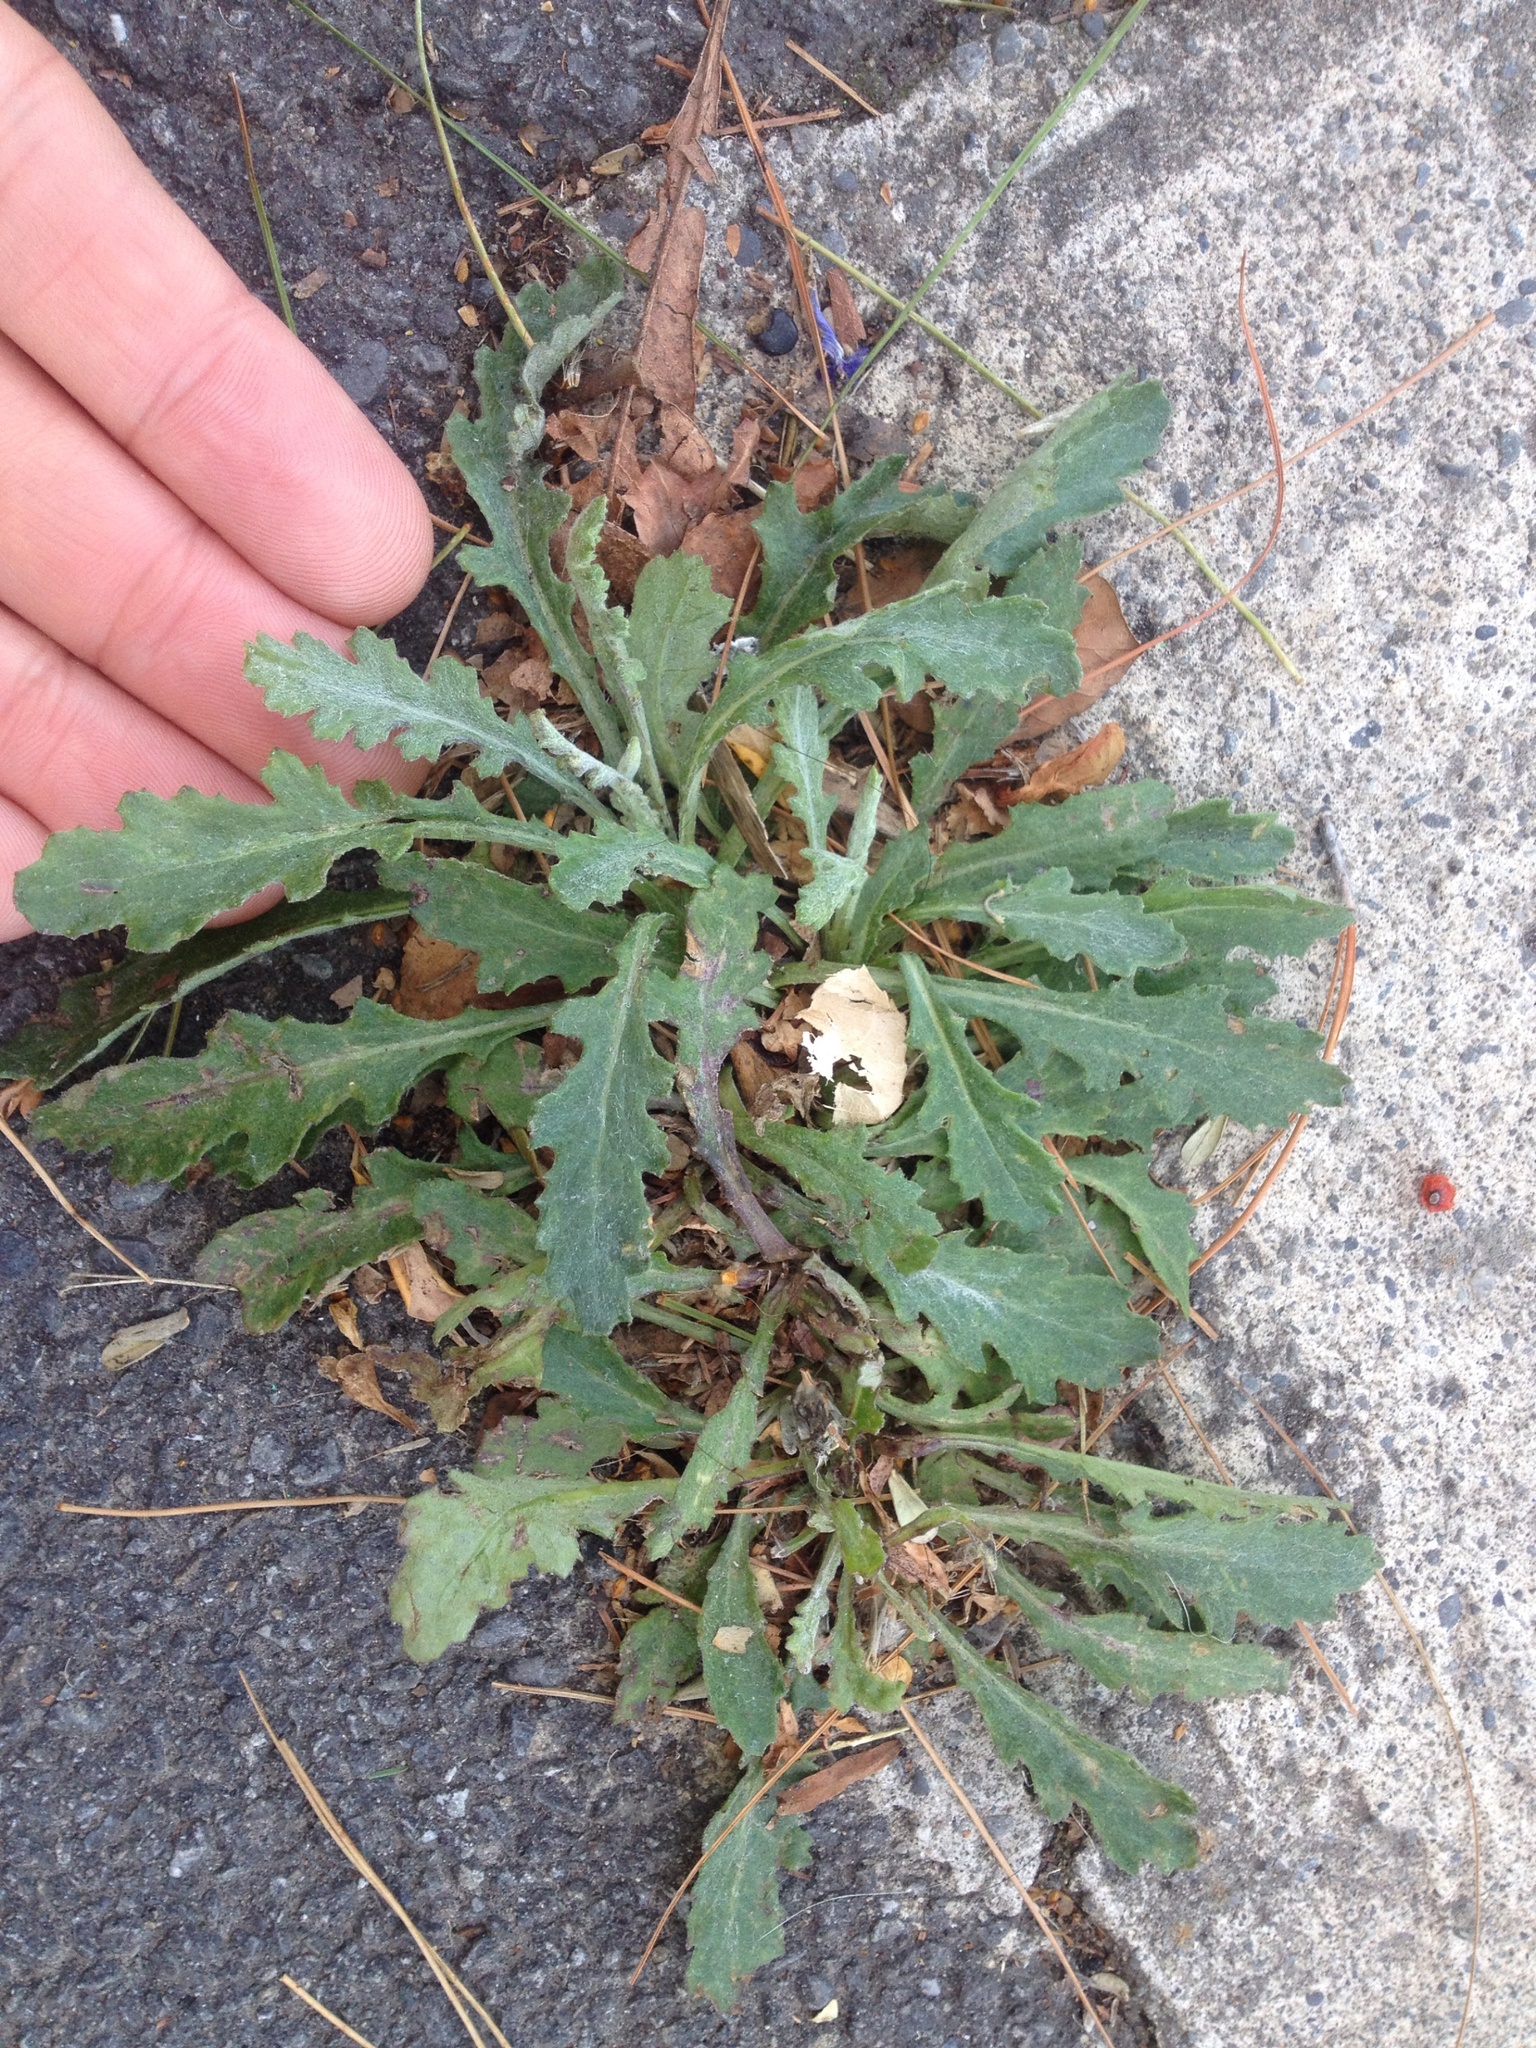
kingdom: Plantae
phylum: Tracheophyta
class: Magnoliopsida
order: Asterales
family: Asteraceae
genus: Senecio
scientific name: Senecio glomeratus
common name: Cutleaf burnweed
